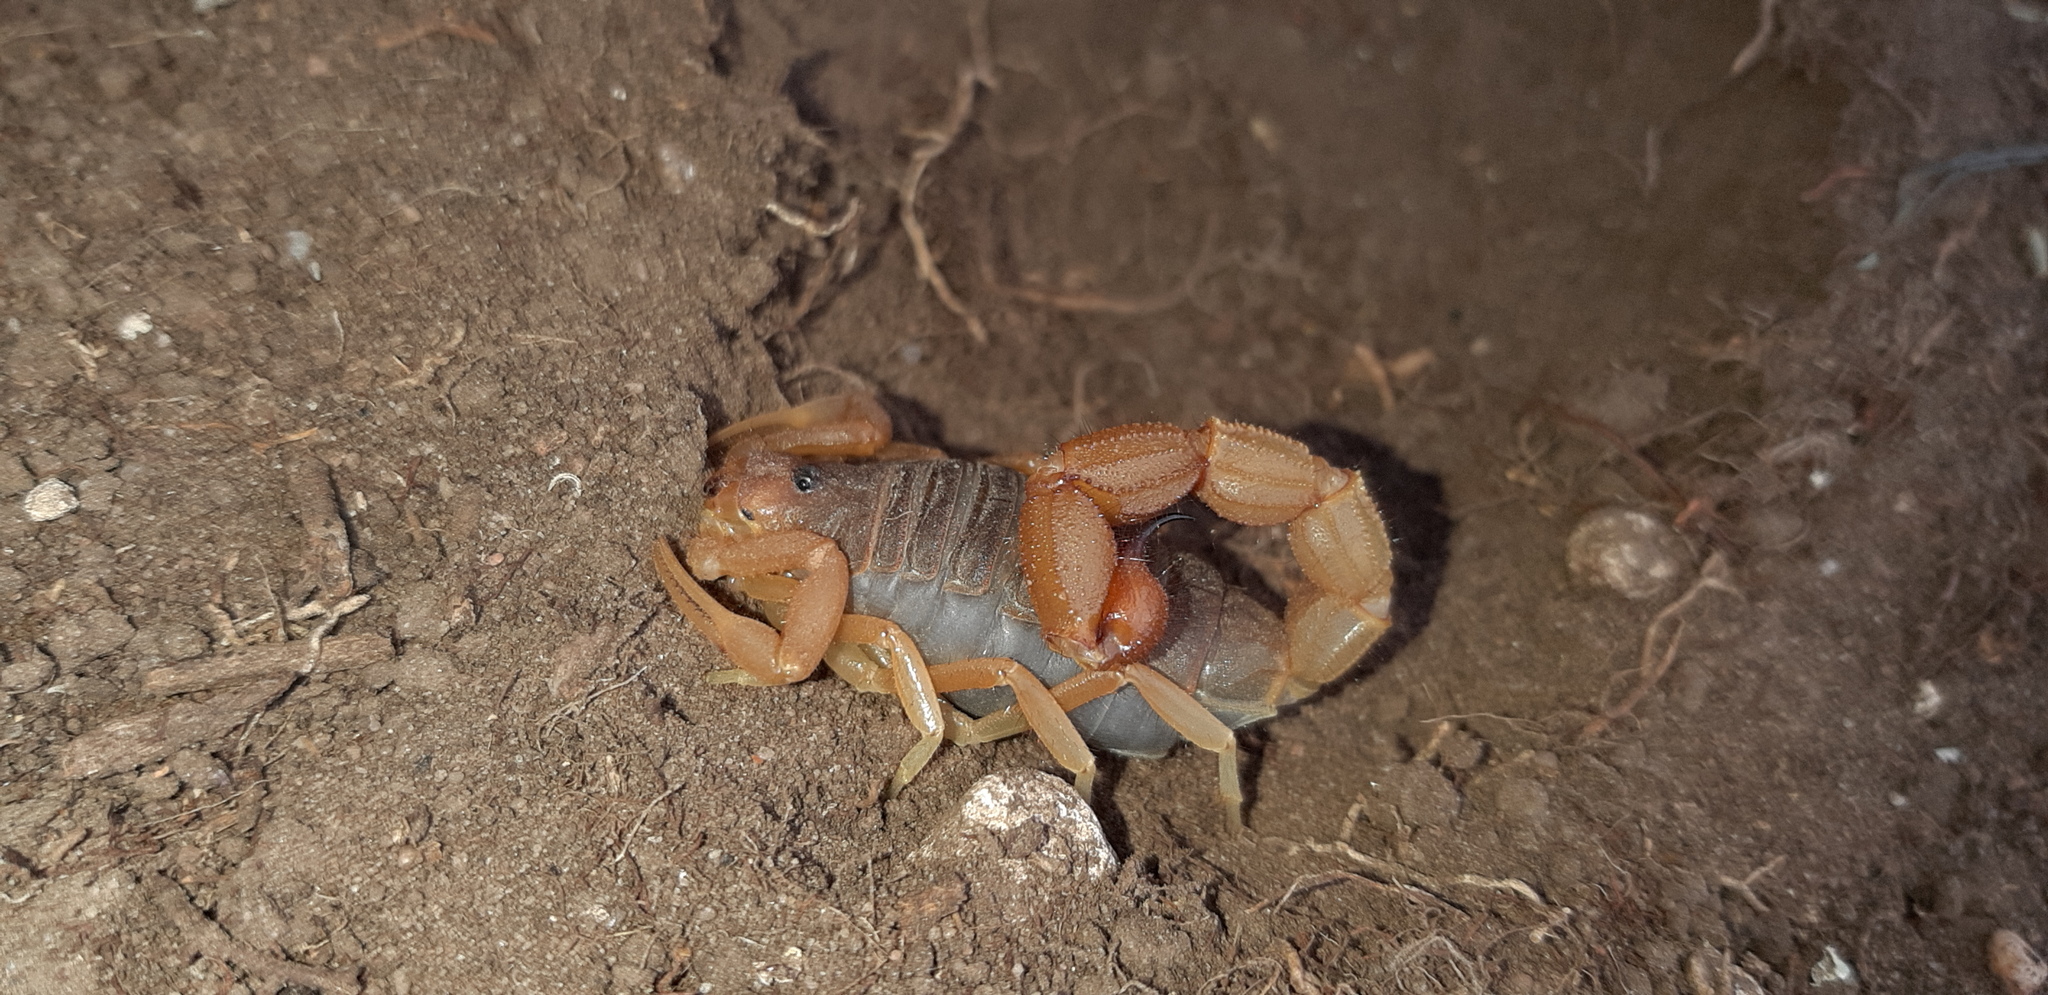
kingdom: Animalia
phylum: Arthropoda
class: Arachnida
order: Scorpiones
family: Buthidae
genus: Parabuthus
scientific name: Parabuthus planicauda
